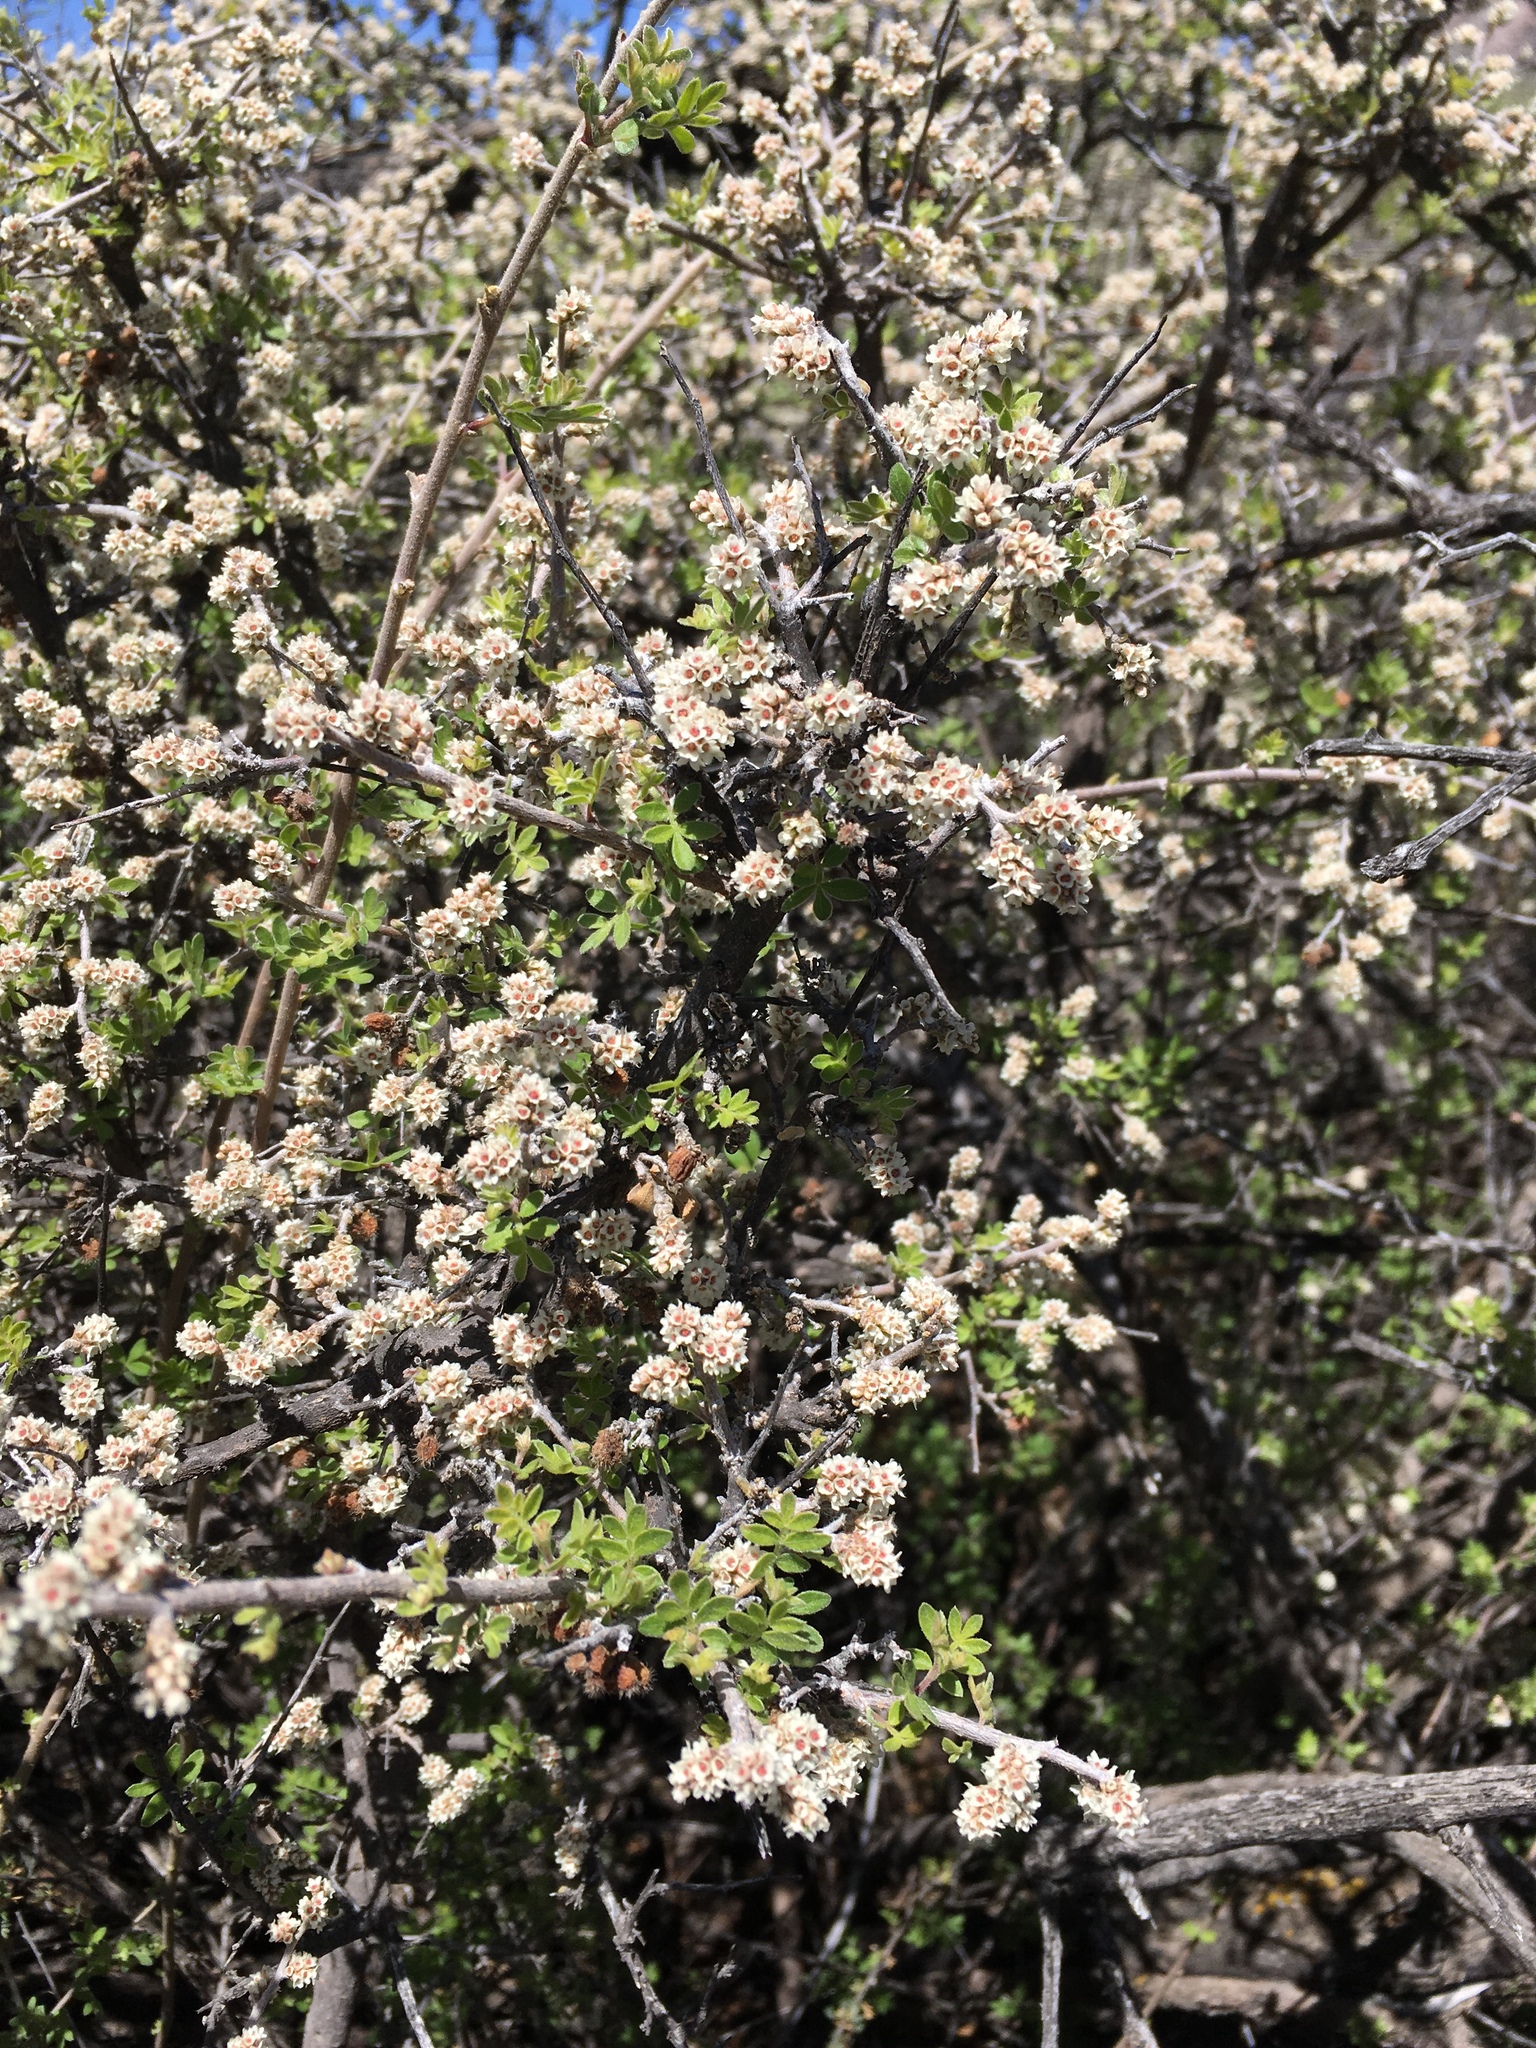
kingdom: Plantae
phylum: Tracheophyta
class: Magnoliopsida
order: Sapindales
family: Anacardiaceae
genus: Rhus
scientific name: Rhus microphylla
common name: Desert sumac
